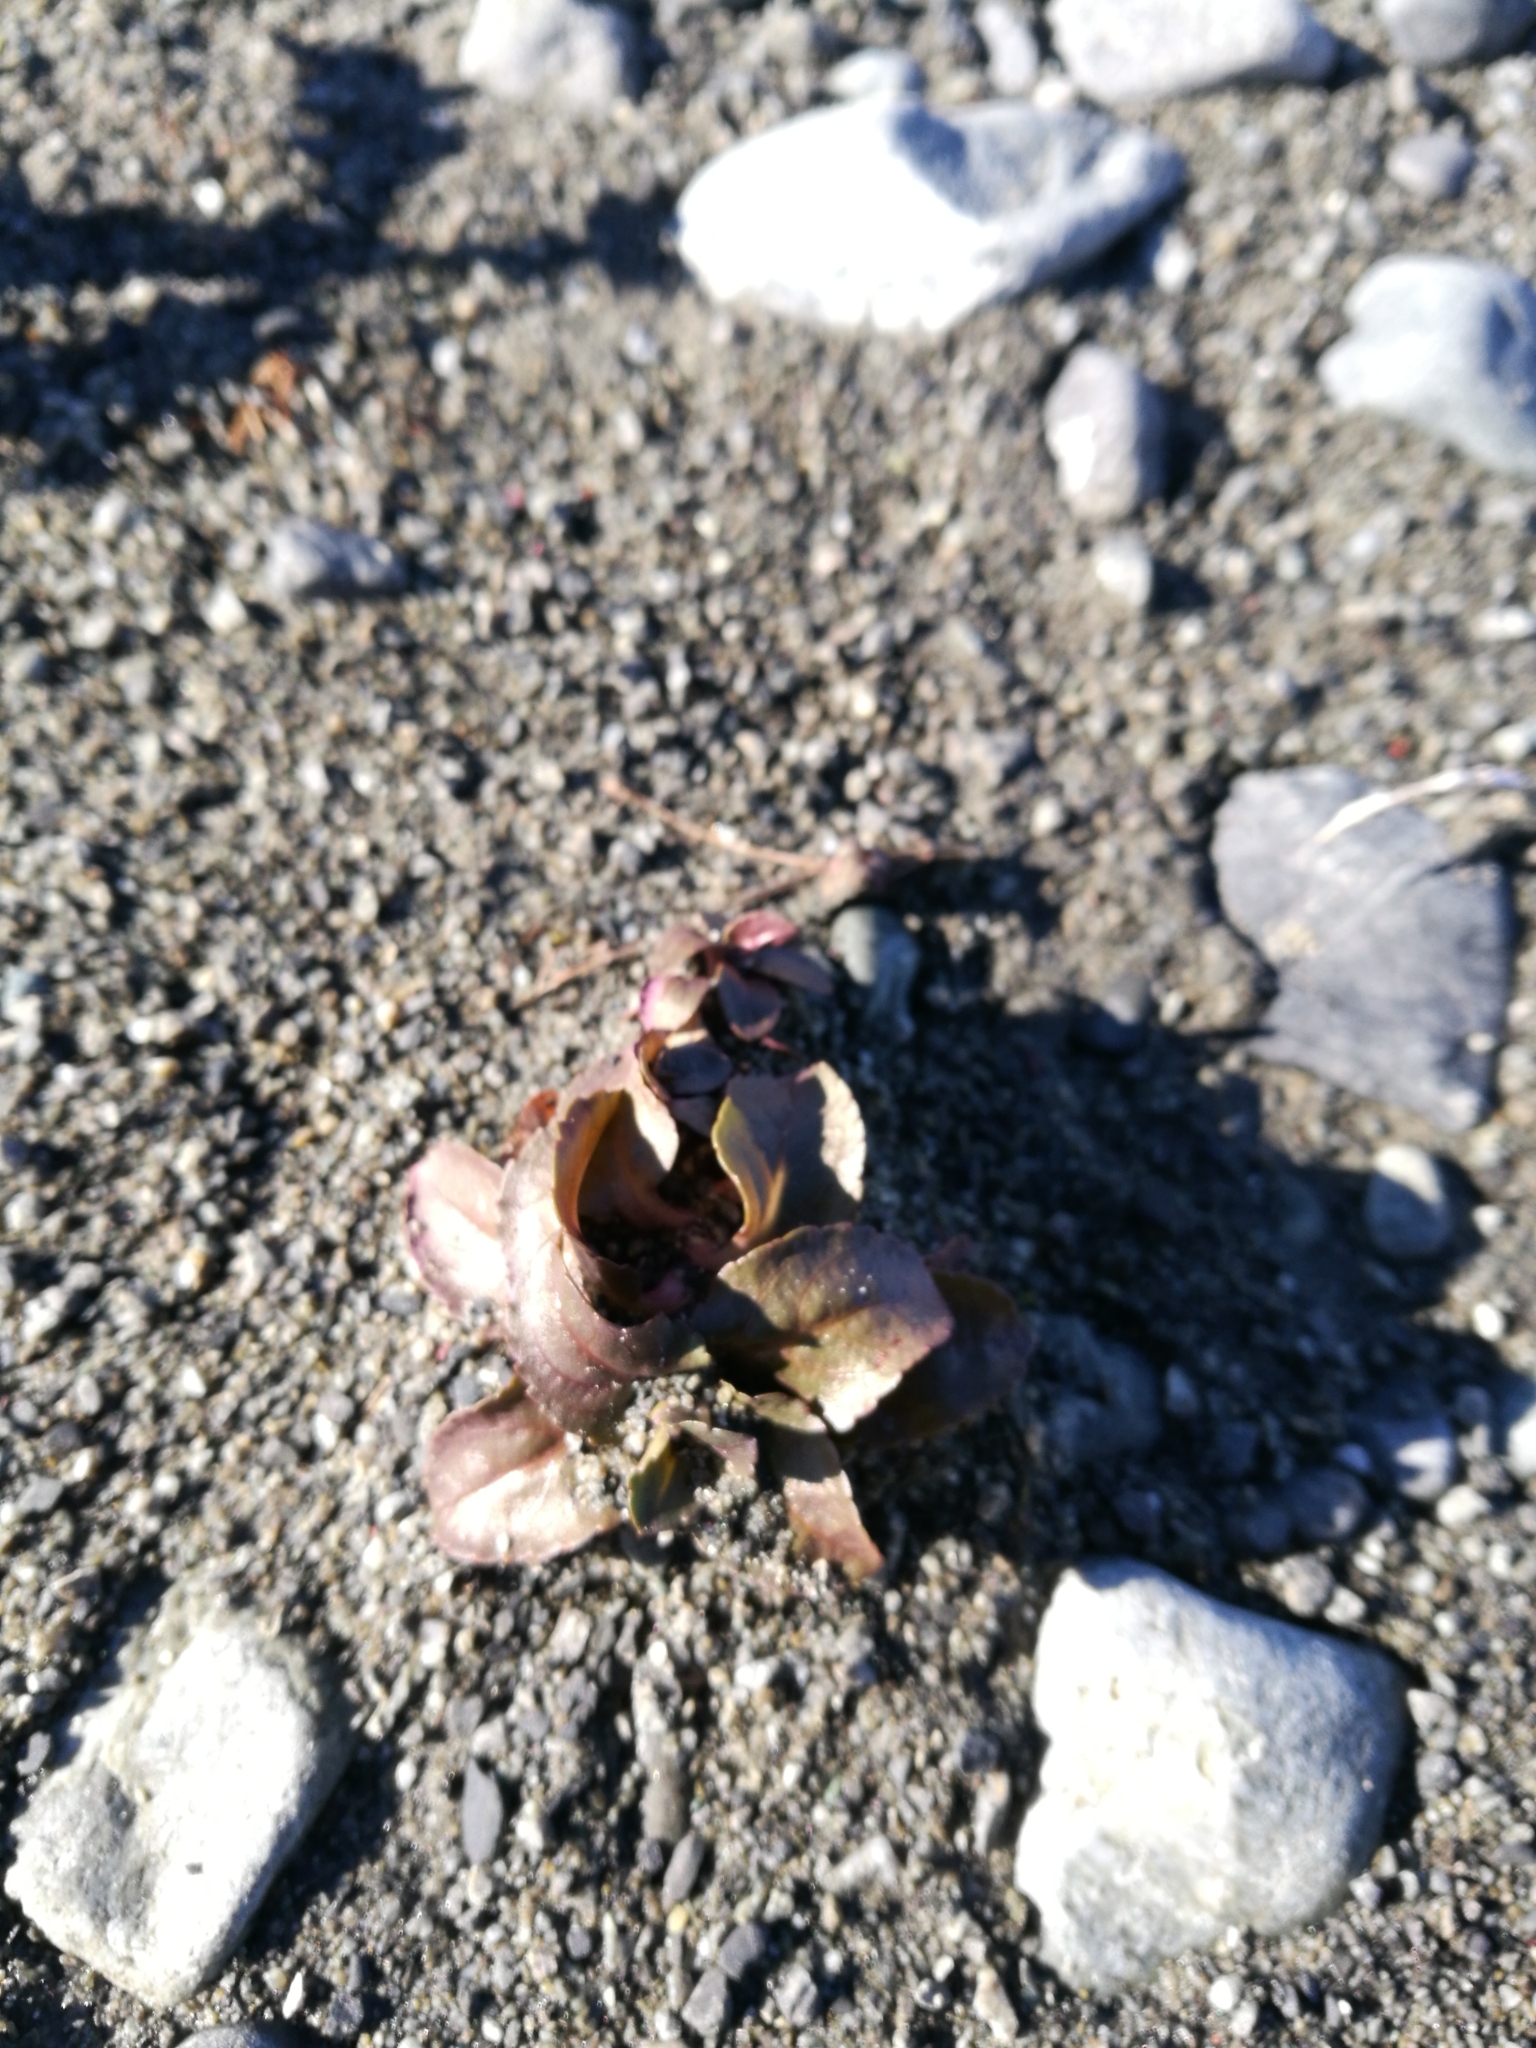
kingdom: Plantae
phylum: Tracheophyta
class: Magnoliopsida
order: Lamiales
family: Phrymaceae
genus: Erythranthe
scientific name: Erythranthe guttata
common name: Monkeyflower
